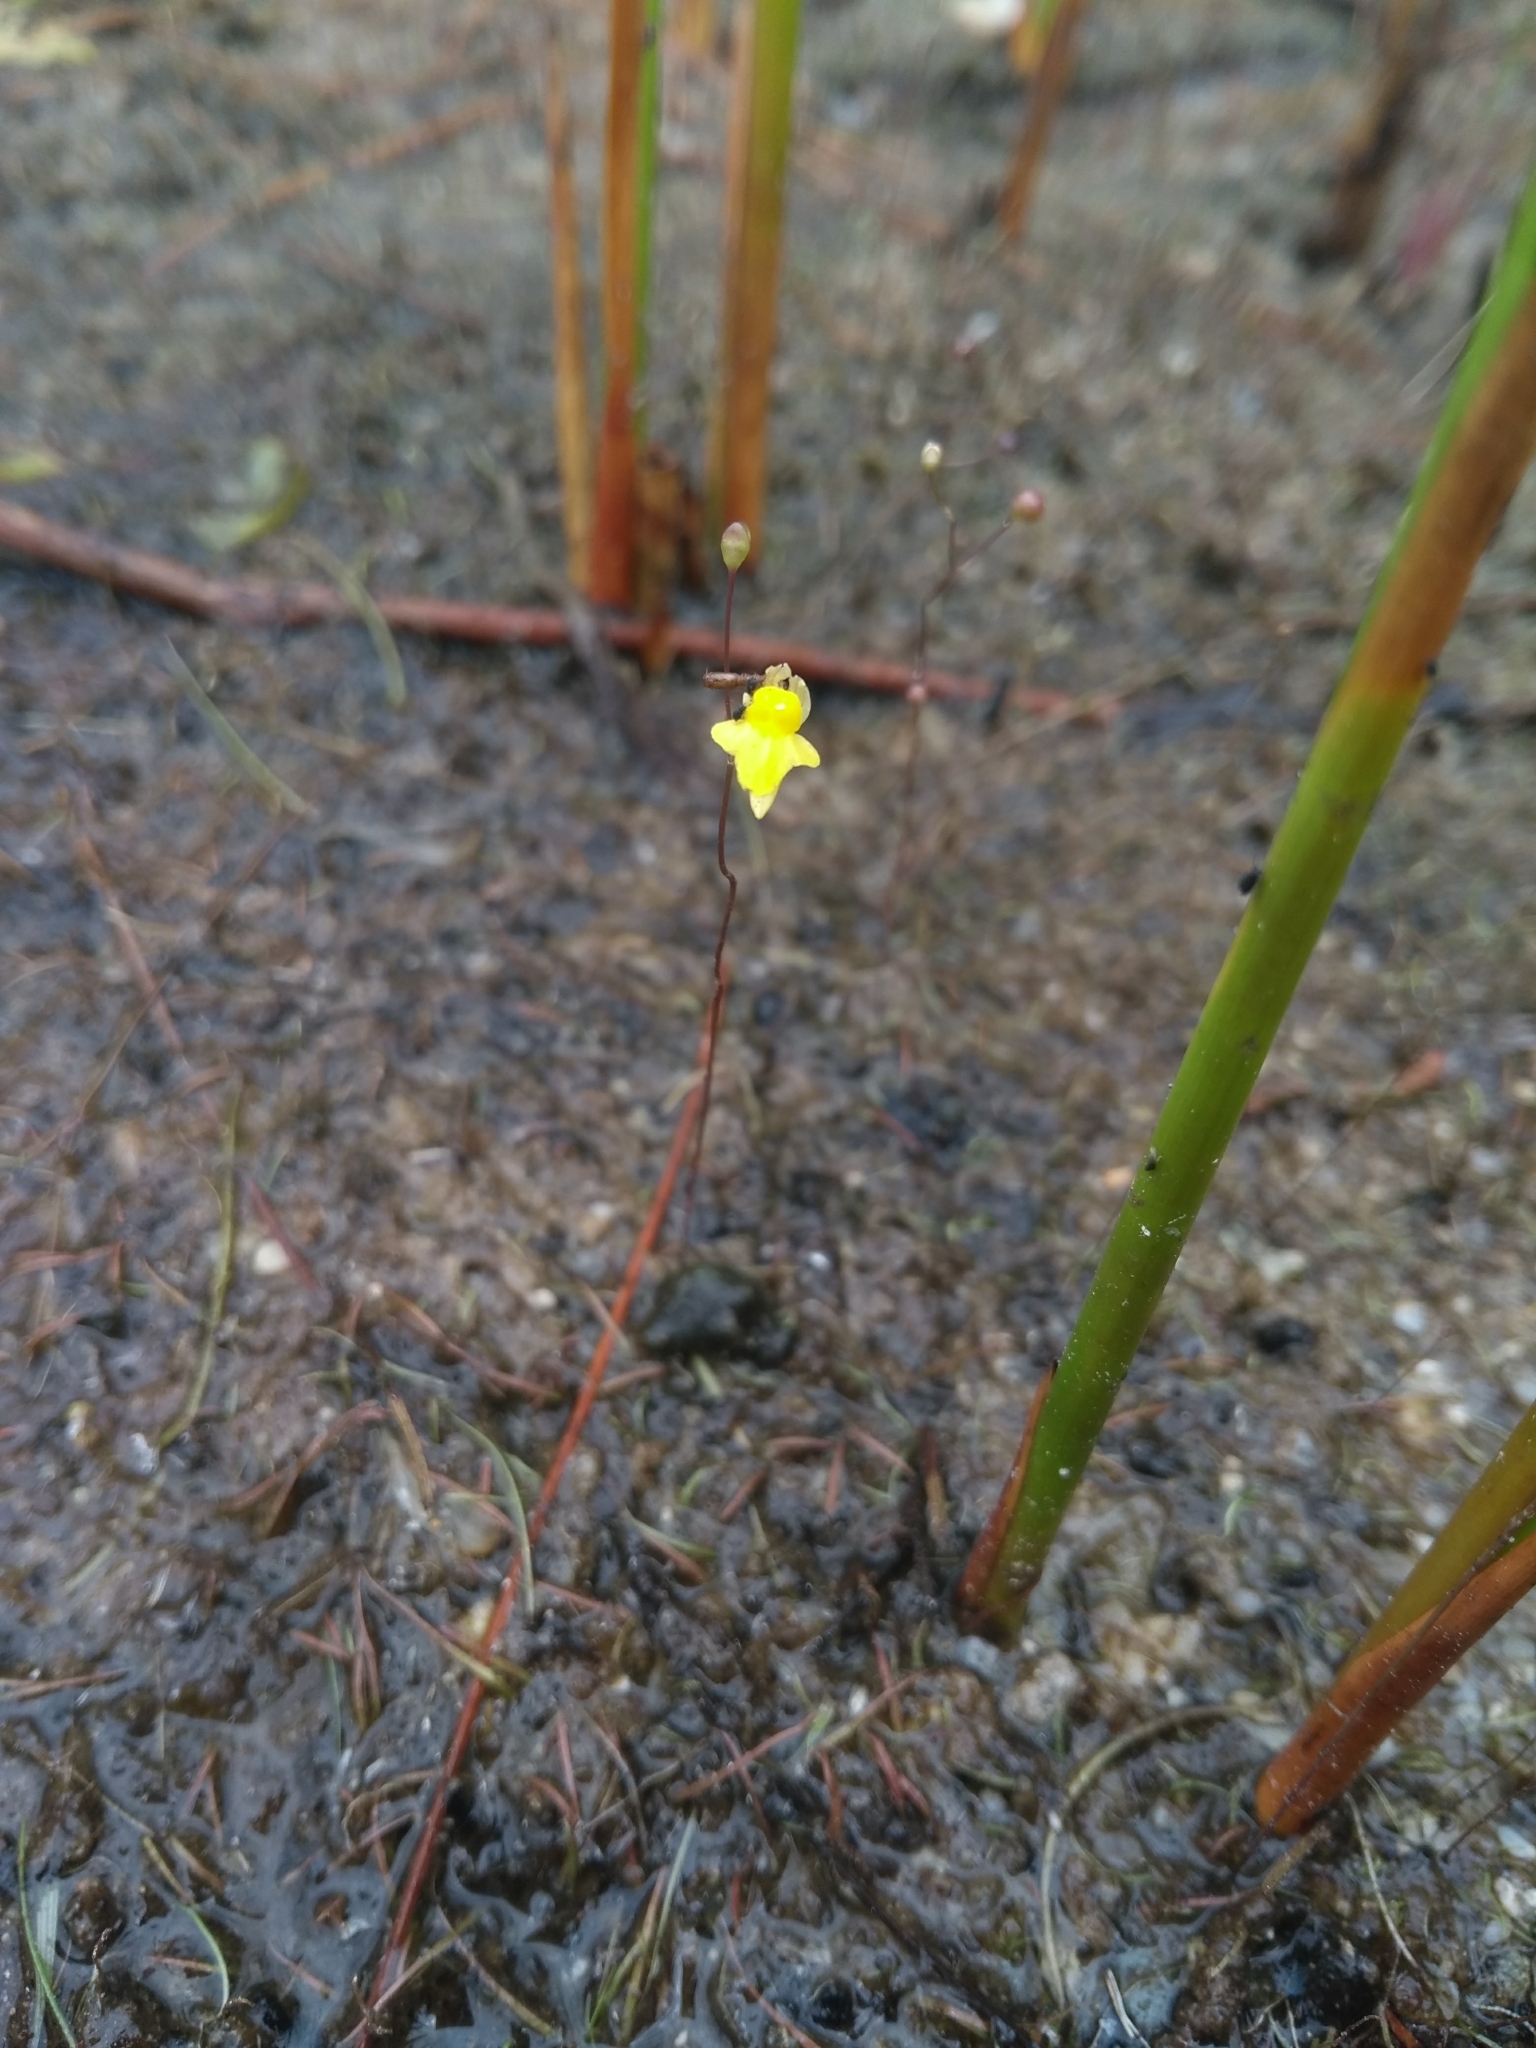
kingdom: Plantae
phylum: Tracheophyta
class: Magnoliopsida
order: Lamiales
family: Lentibulariaceae
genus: Utricularia
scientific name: Utricularia subulata
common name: Tiny bladderwort
